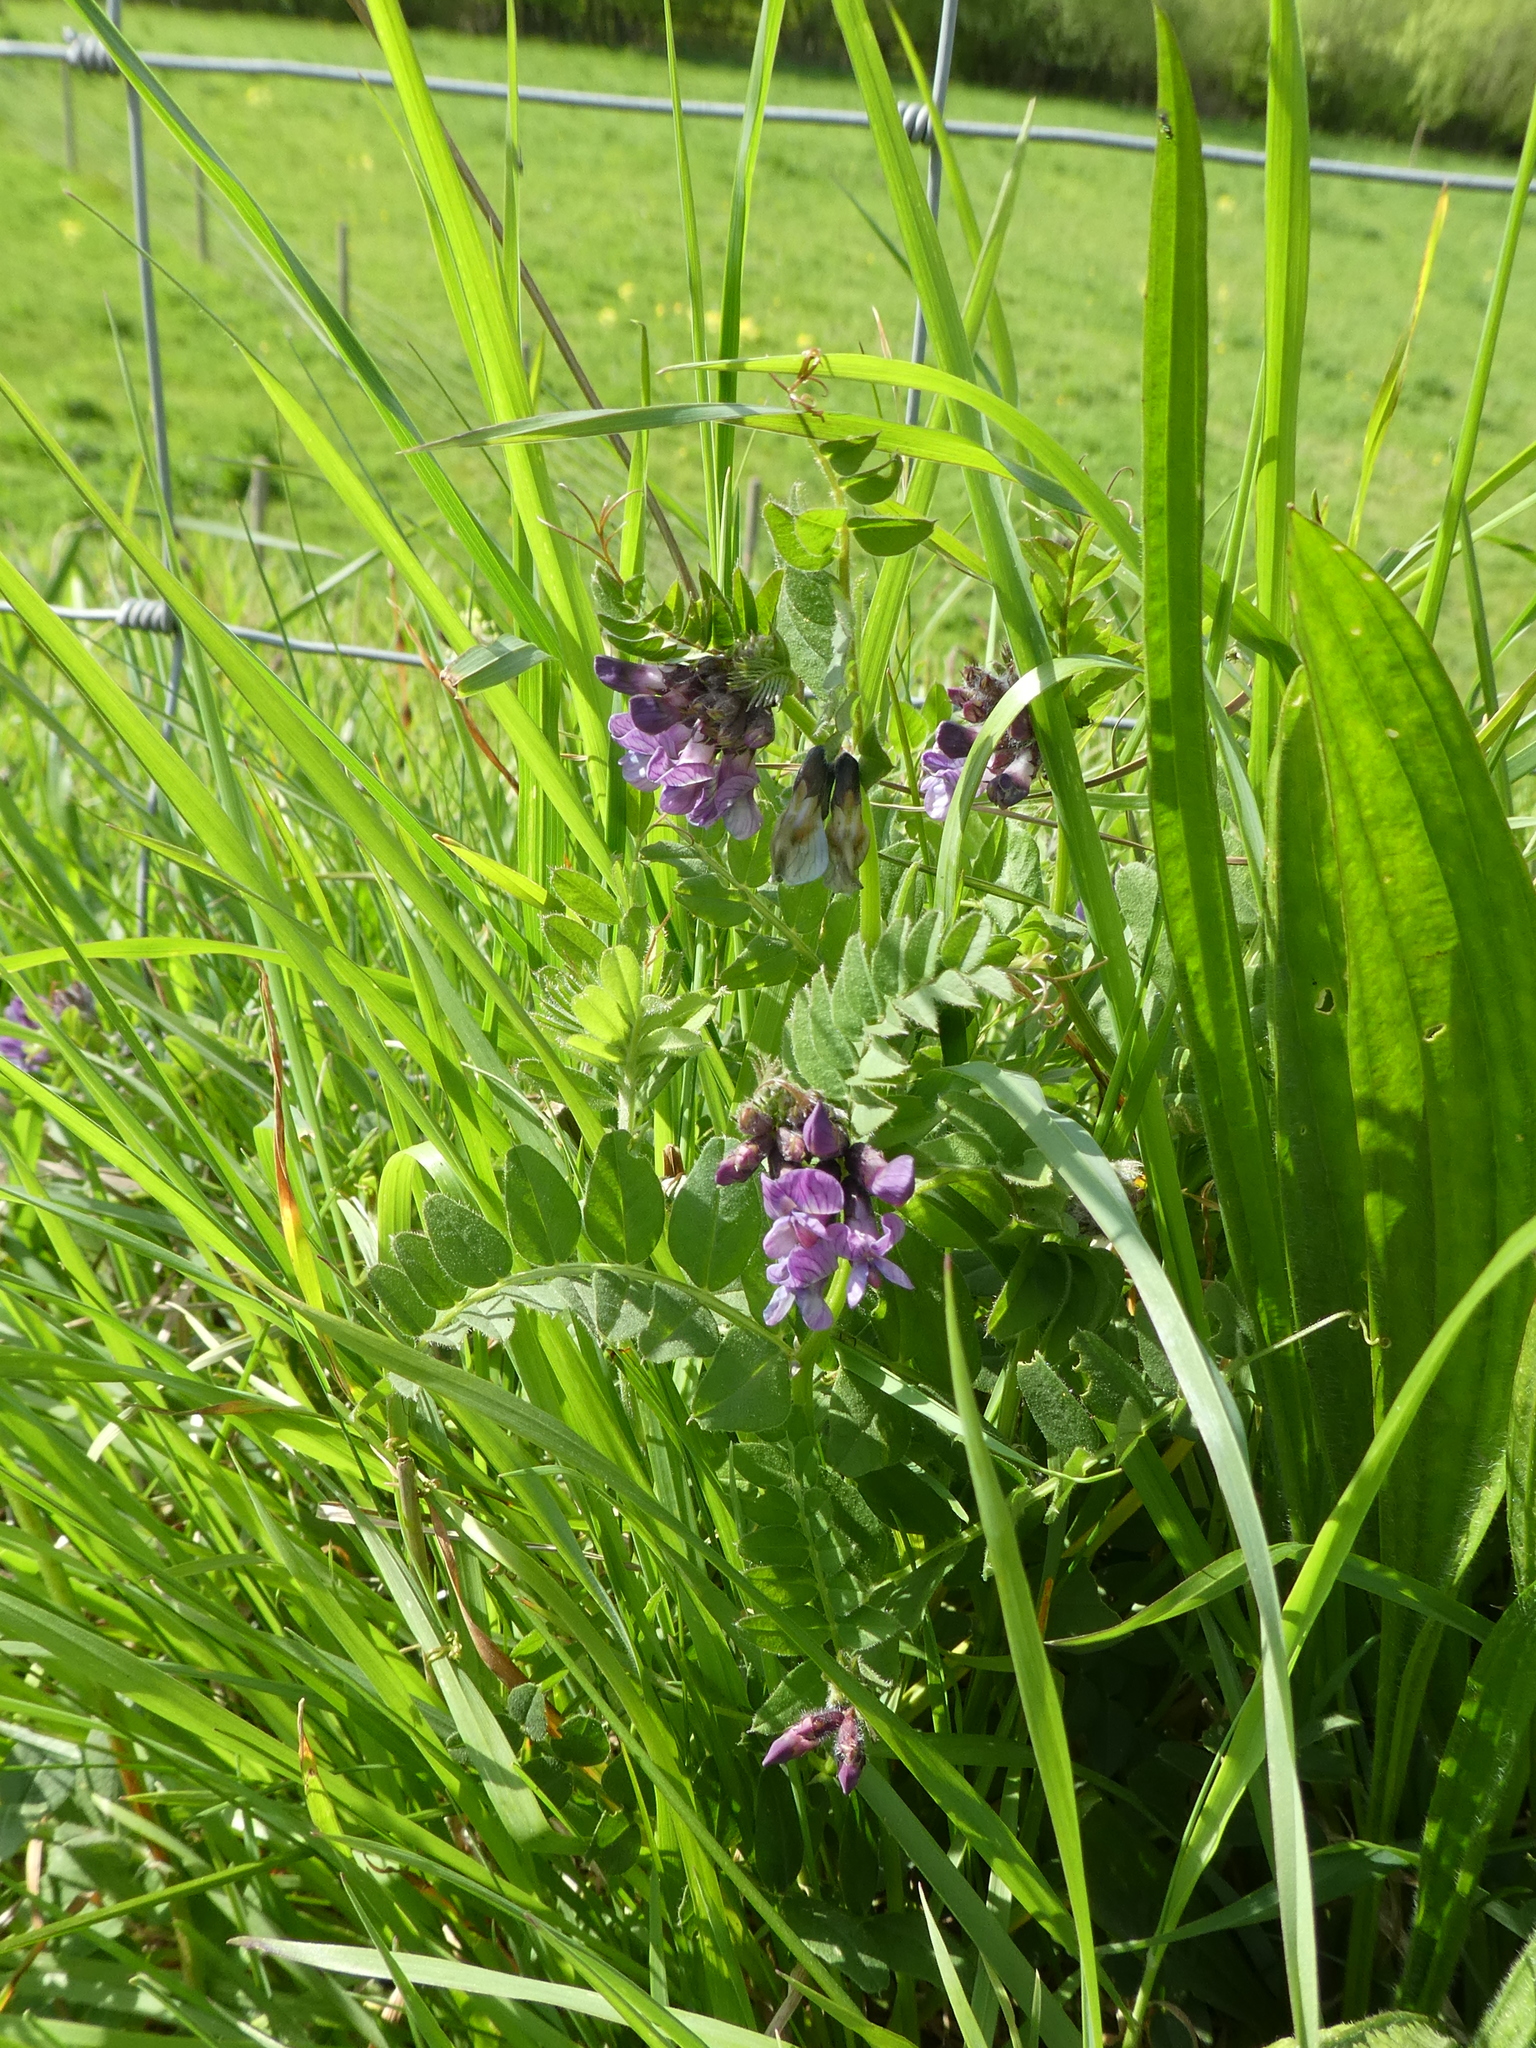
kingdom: Plantae
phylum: Tracheophyta
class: Magnoliopsida
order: Fabales
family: Fabaceae
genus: Vicia
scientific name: Vicia sepium
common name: Bush vetch
